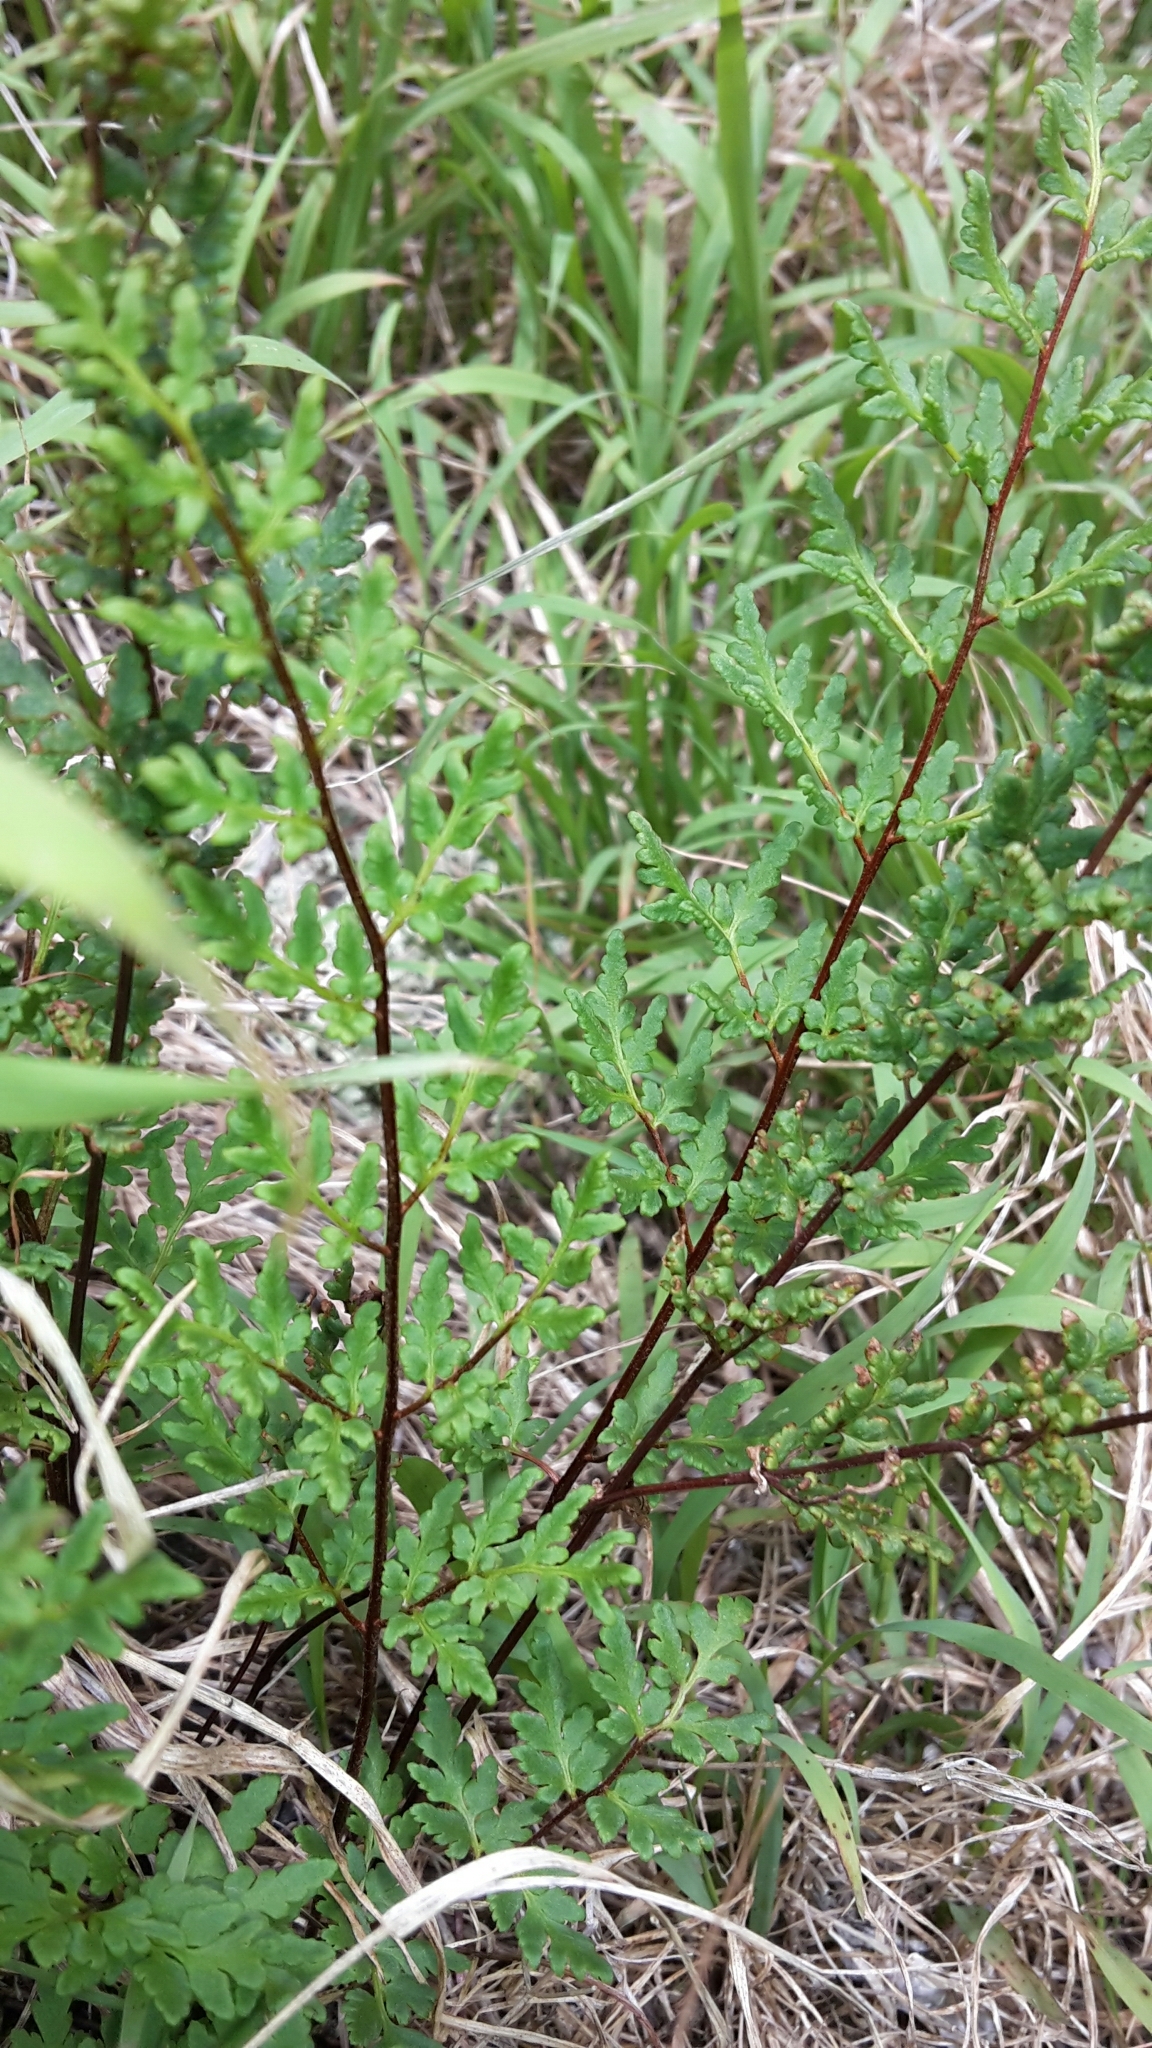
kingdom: Plantae
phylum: Tracheophyta
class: Polypodiopsida
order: Polypodiales
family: Pteridaceae
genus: Cheilanthes
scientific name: Cheilanthes sieberi
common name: Mulga fern
